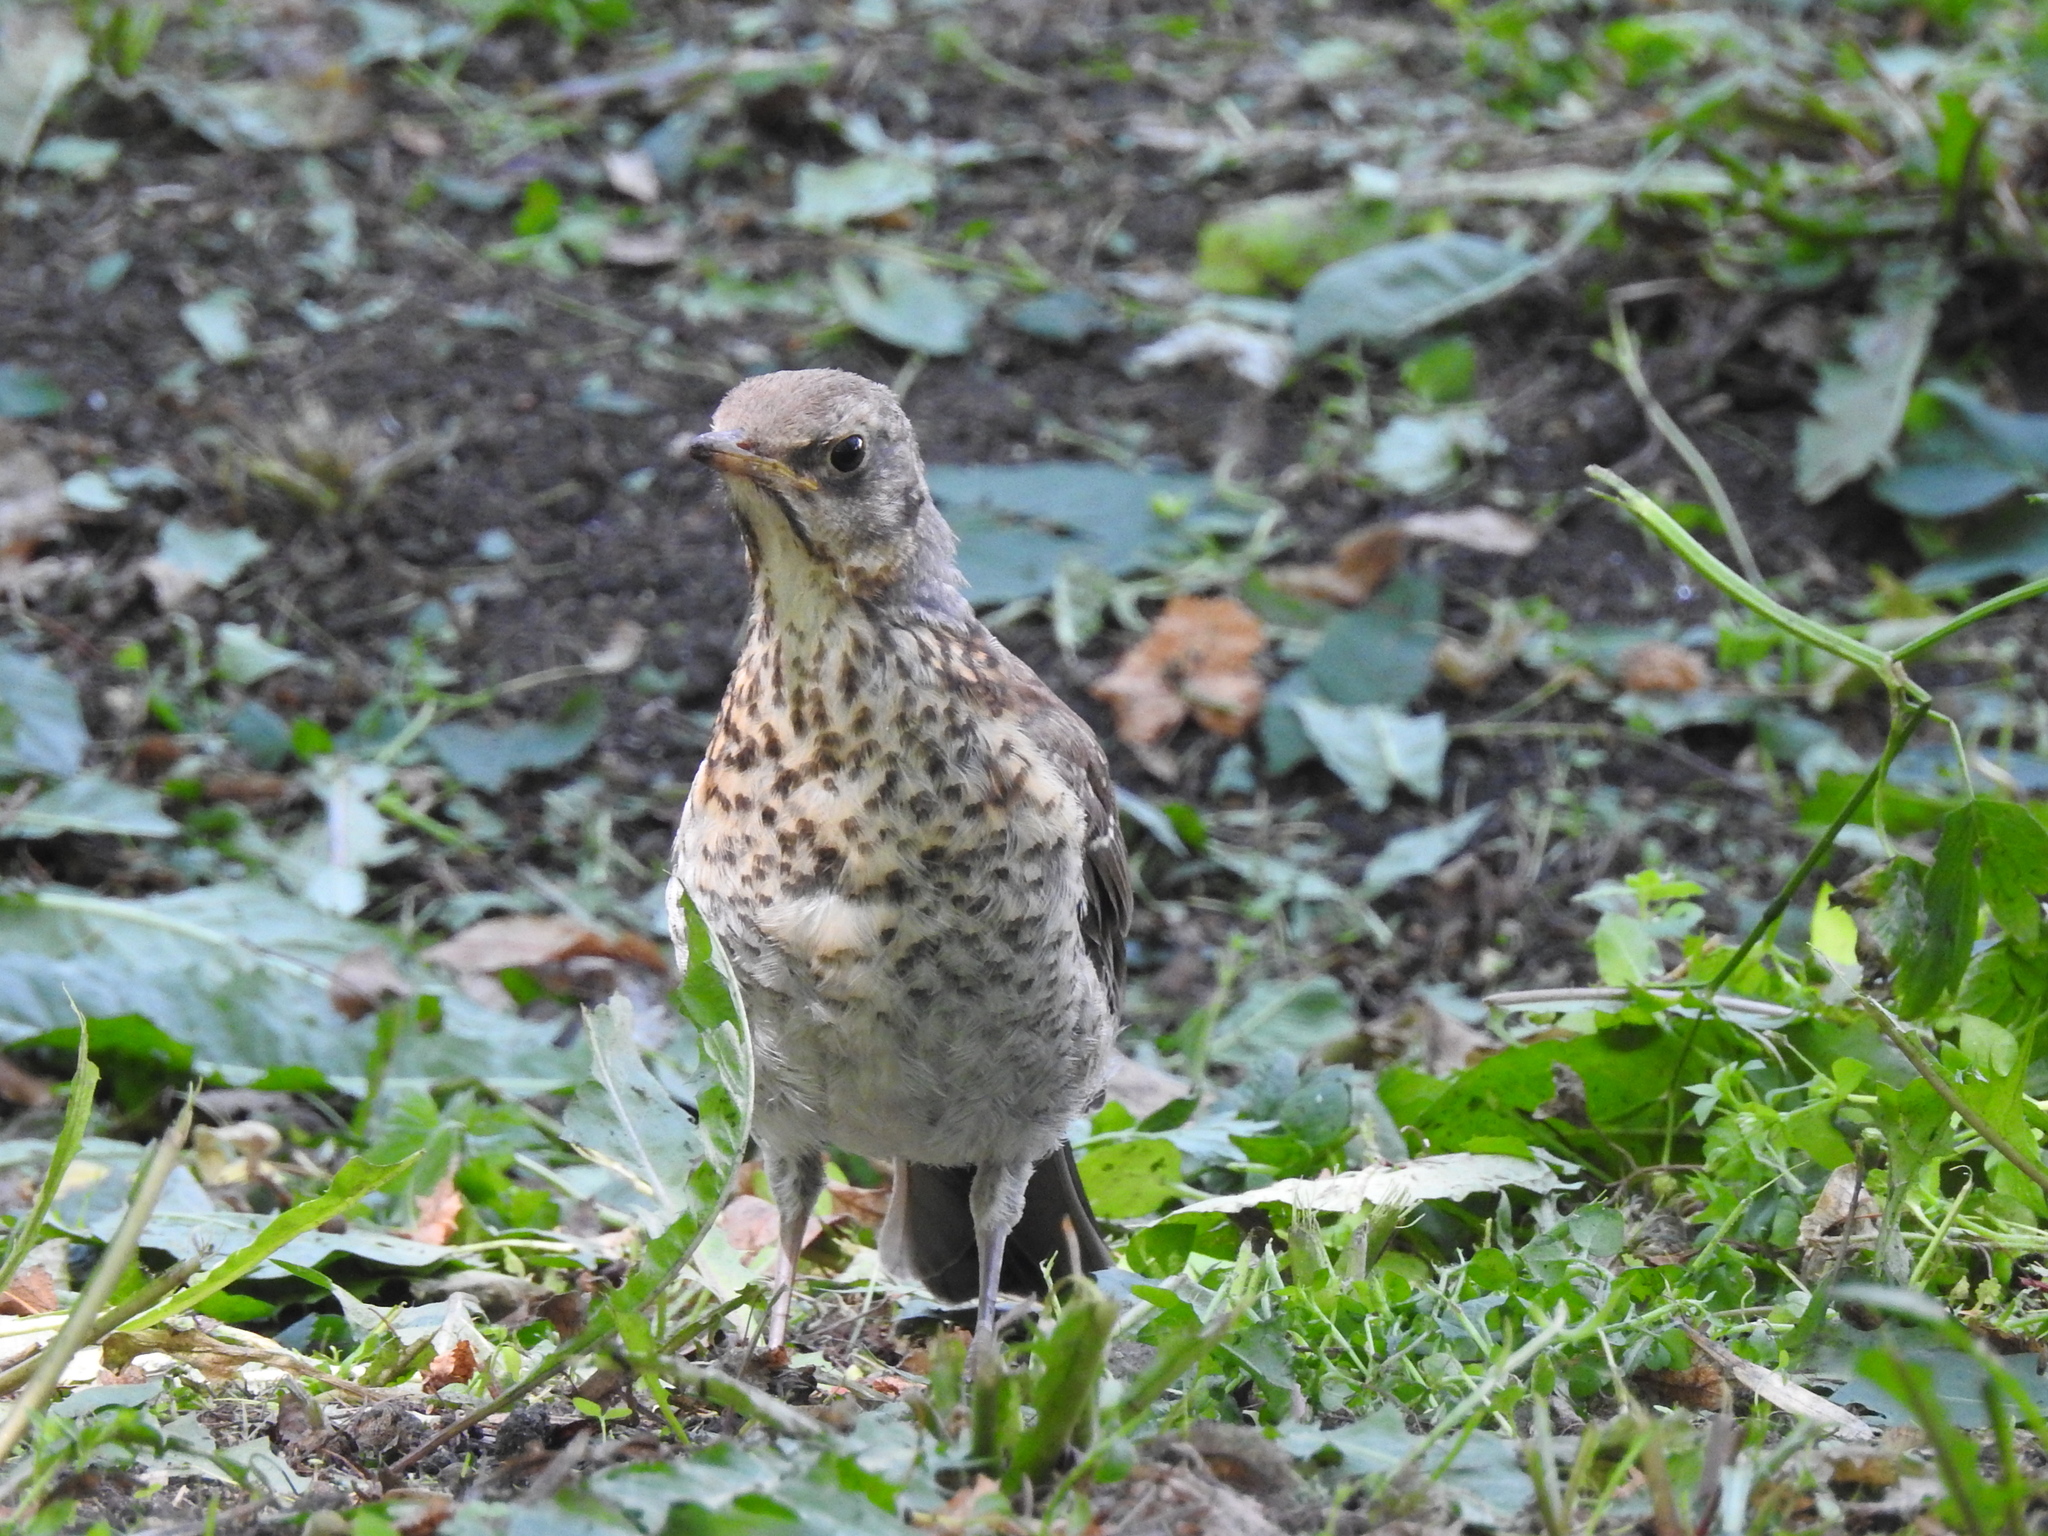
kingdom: Animalia
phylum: Chordata
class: Aves
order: Passeriformes
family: Turdidae
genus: Turdus
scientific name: Turdus pilaris
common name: Fieldfare
